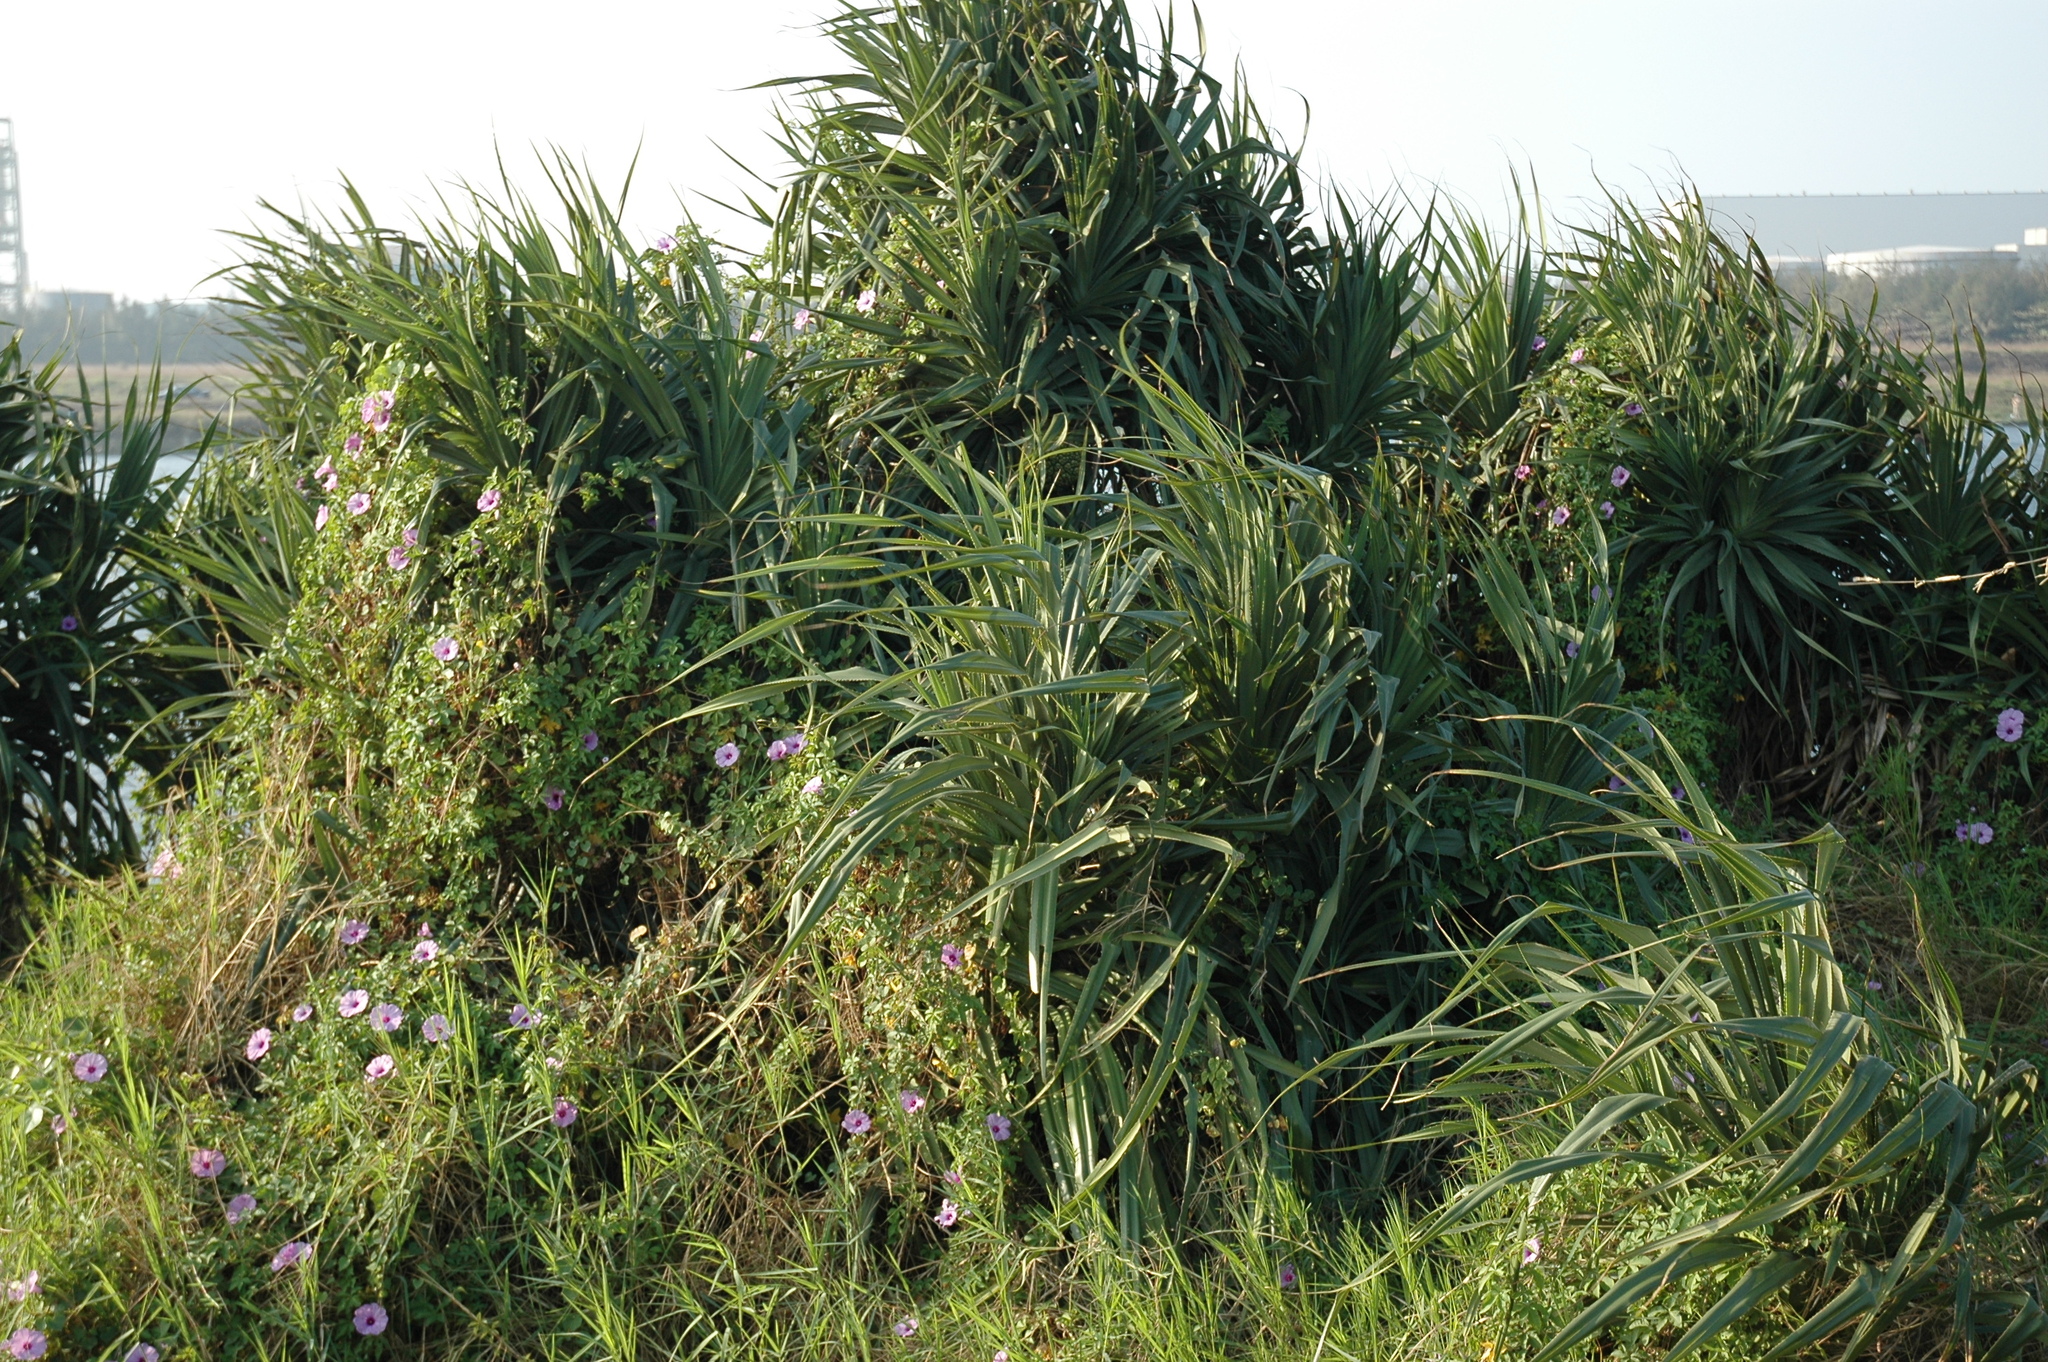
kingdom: Plantae
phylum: Tracheophyta
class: Liliopsida
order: Pandanales
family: Pandanaceae
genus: Pandanus
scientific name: Pandanus odorifer
